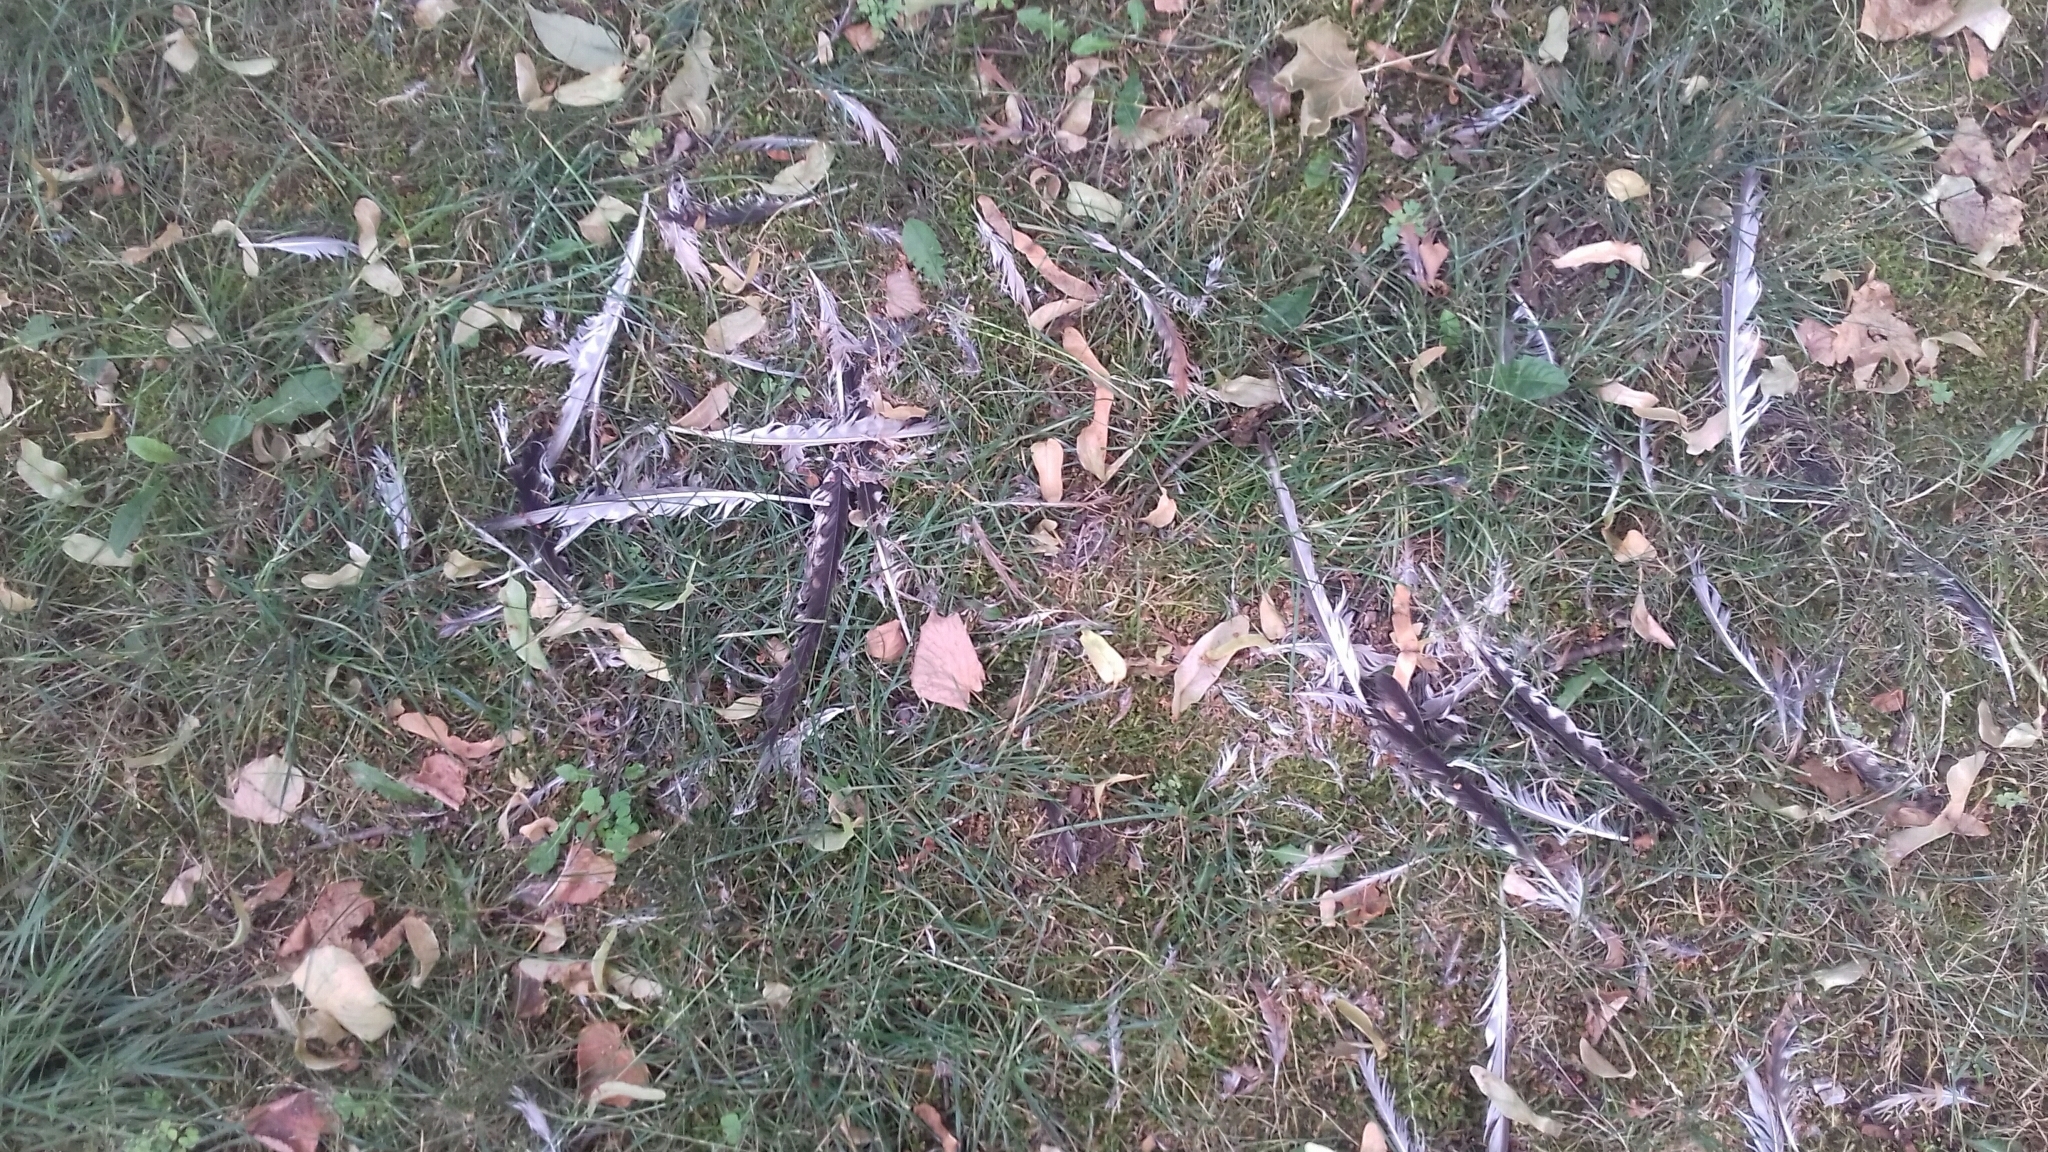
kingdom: Animalia
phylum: Chordata
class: Aves
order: Falconiformes
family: Falconidae
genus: Falco
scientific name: Falco tinnunculus
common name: Common kestrel
